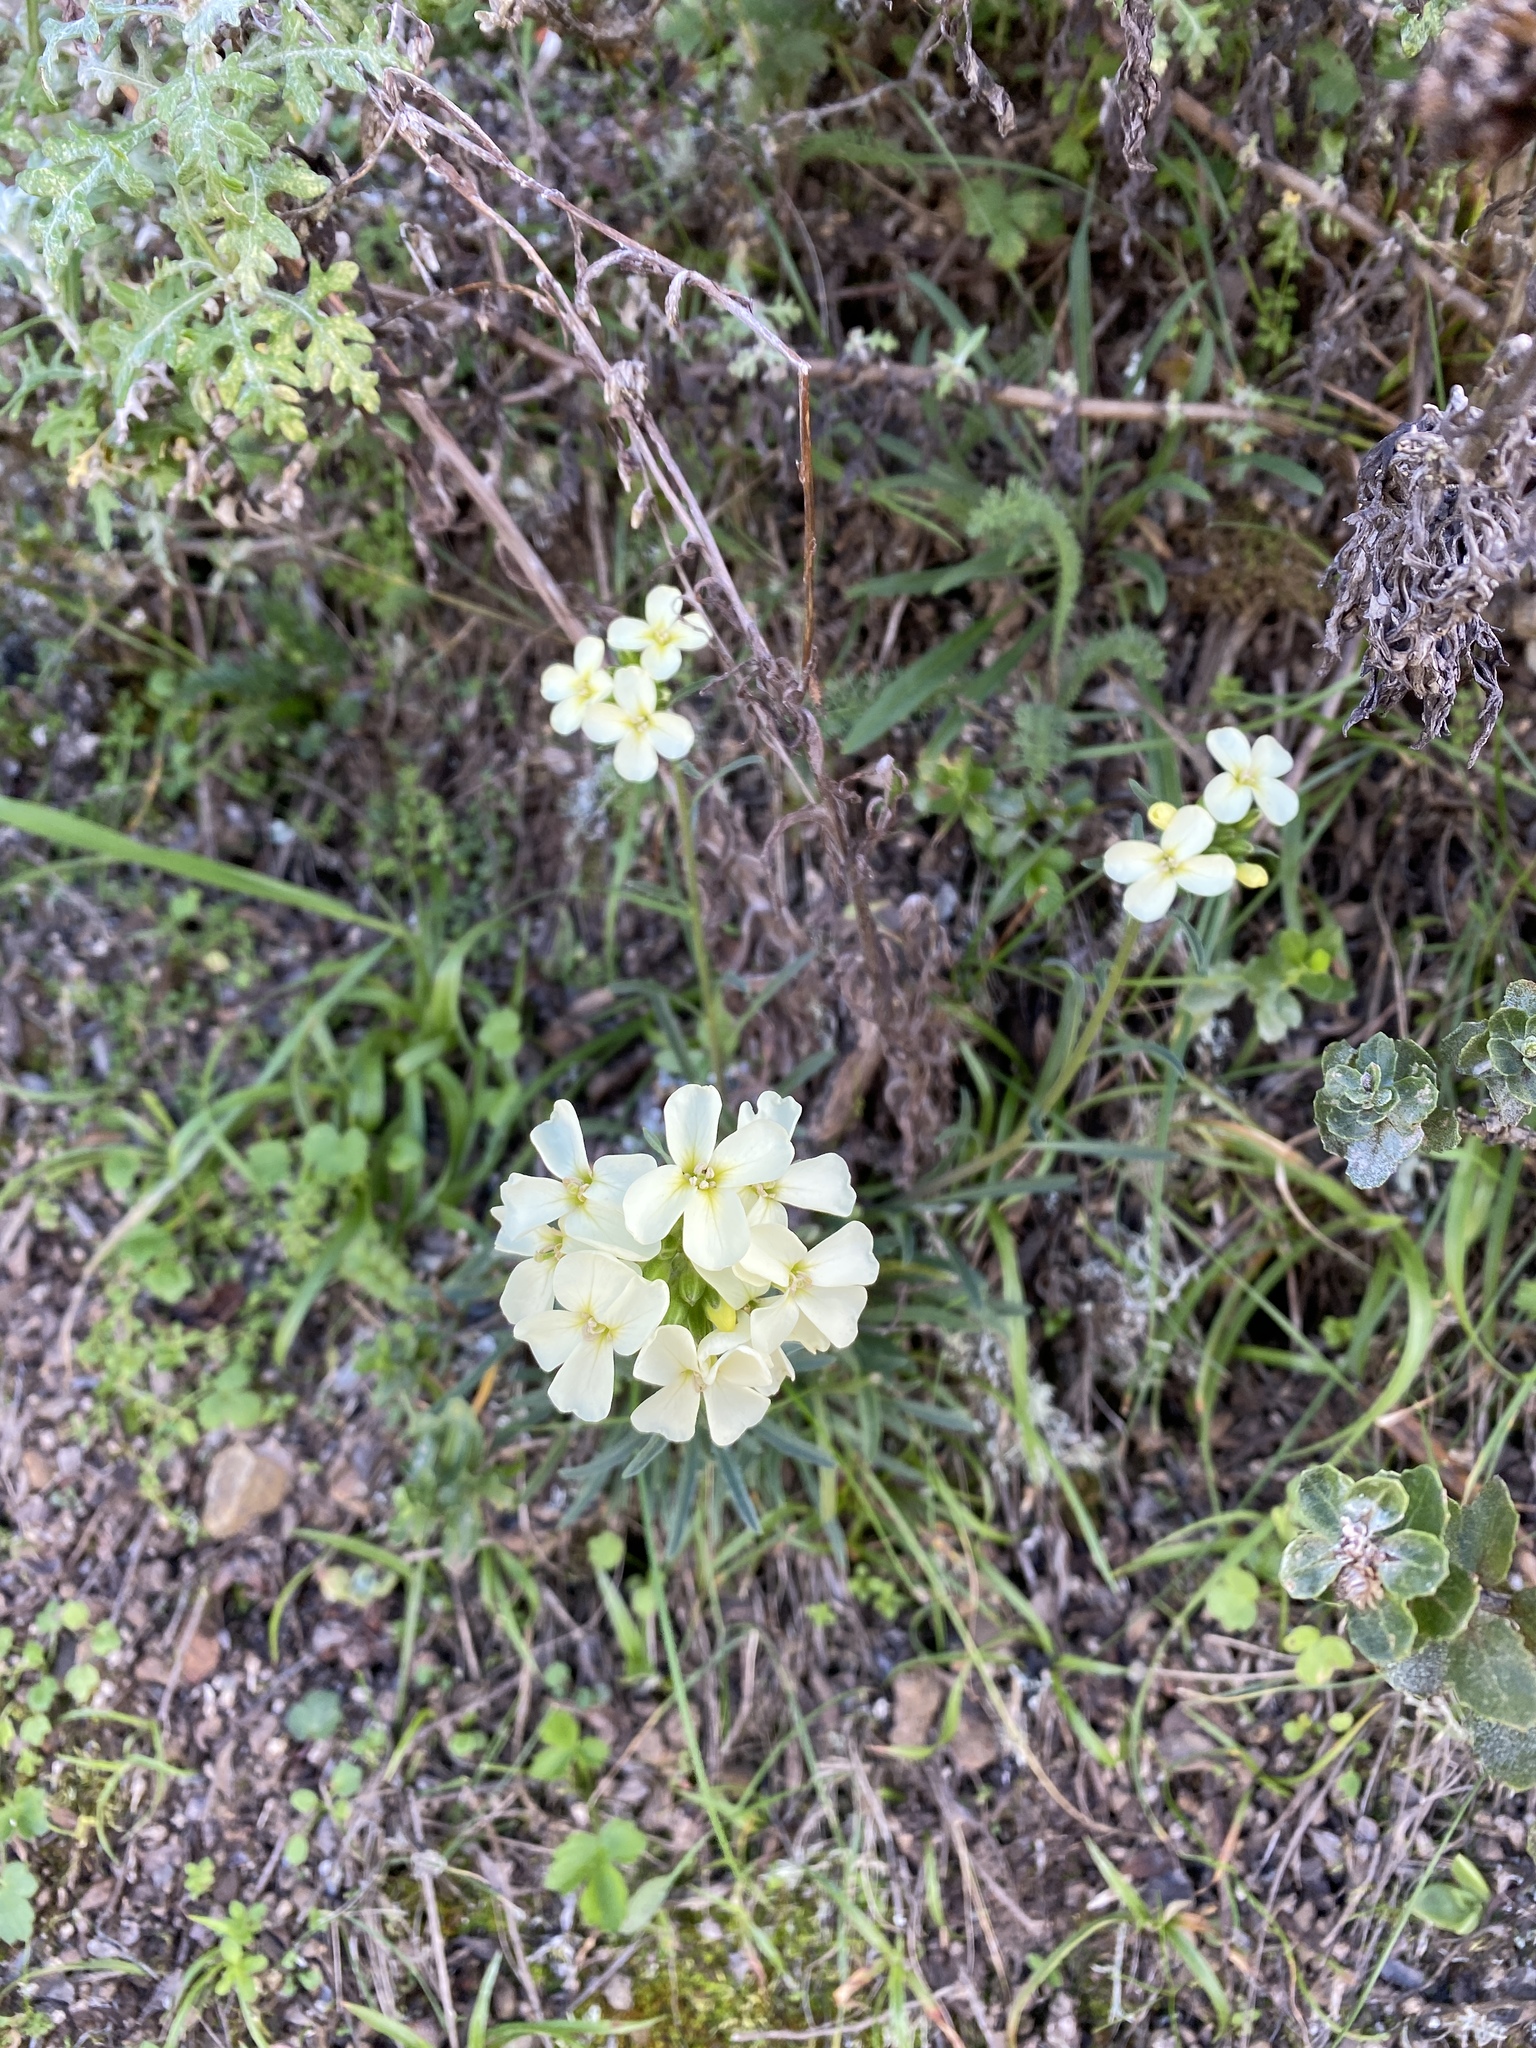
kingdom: Plantae
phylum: Tracheophyta
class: Magnoliopsida
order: Brassicales
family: Brassicaceae
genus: Erysimum
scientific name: Erysimum franciscanum
